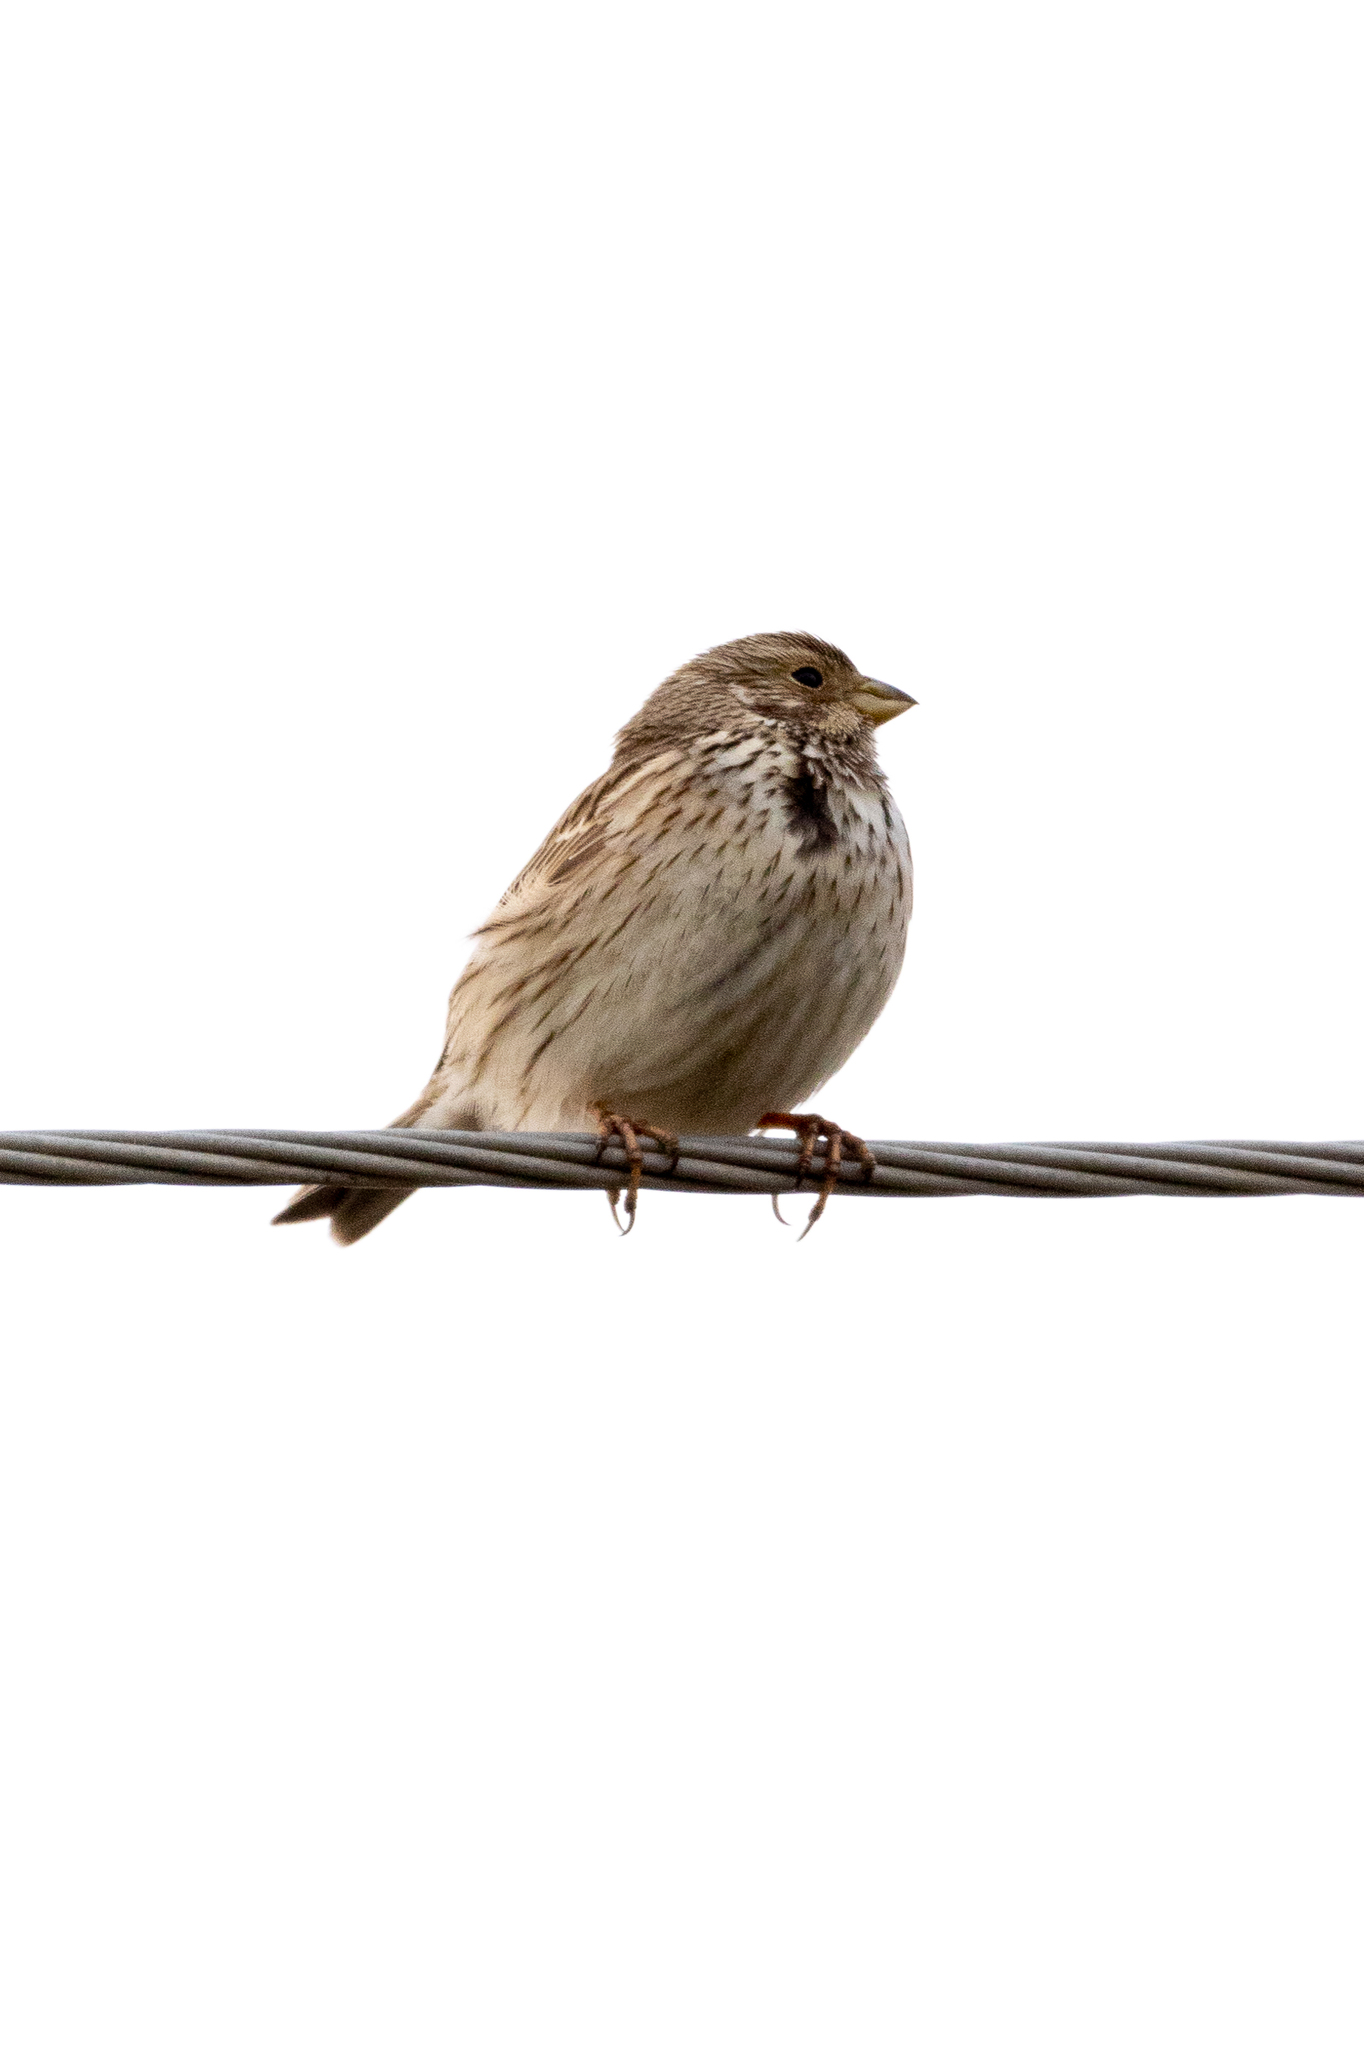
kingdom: Animalia
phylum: Chordata
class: Aves
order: Passeriformes
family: Emberizidae
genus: Emberiza
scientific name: Emberiza calandra
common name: Corn bunting
